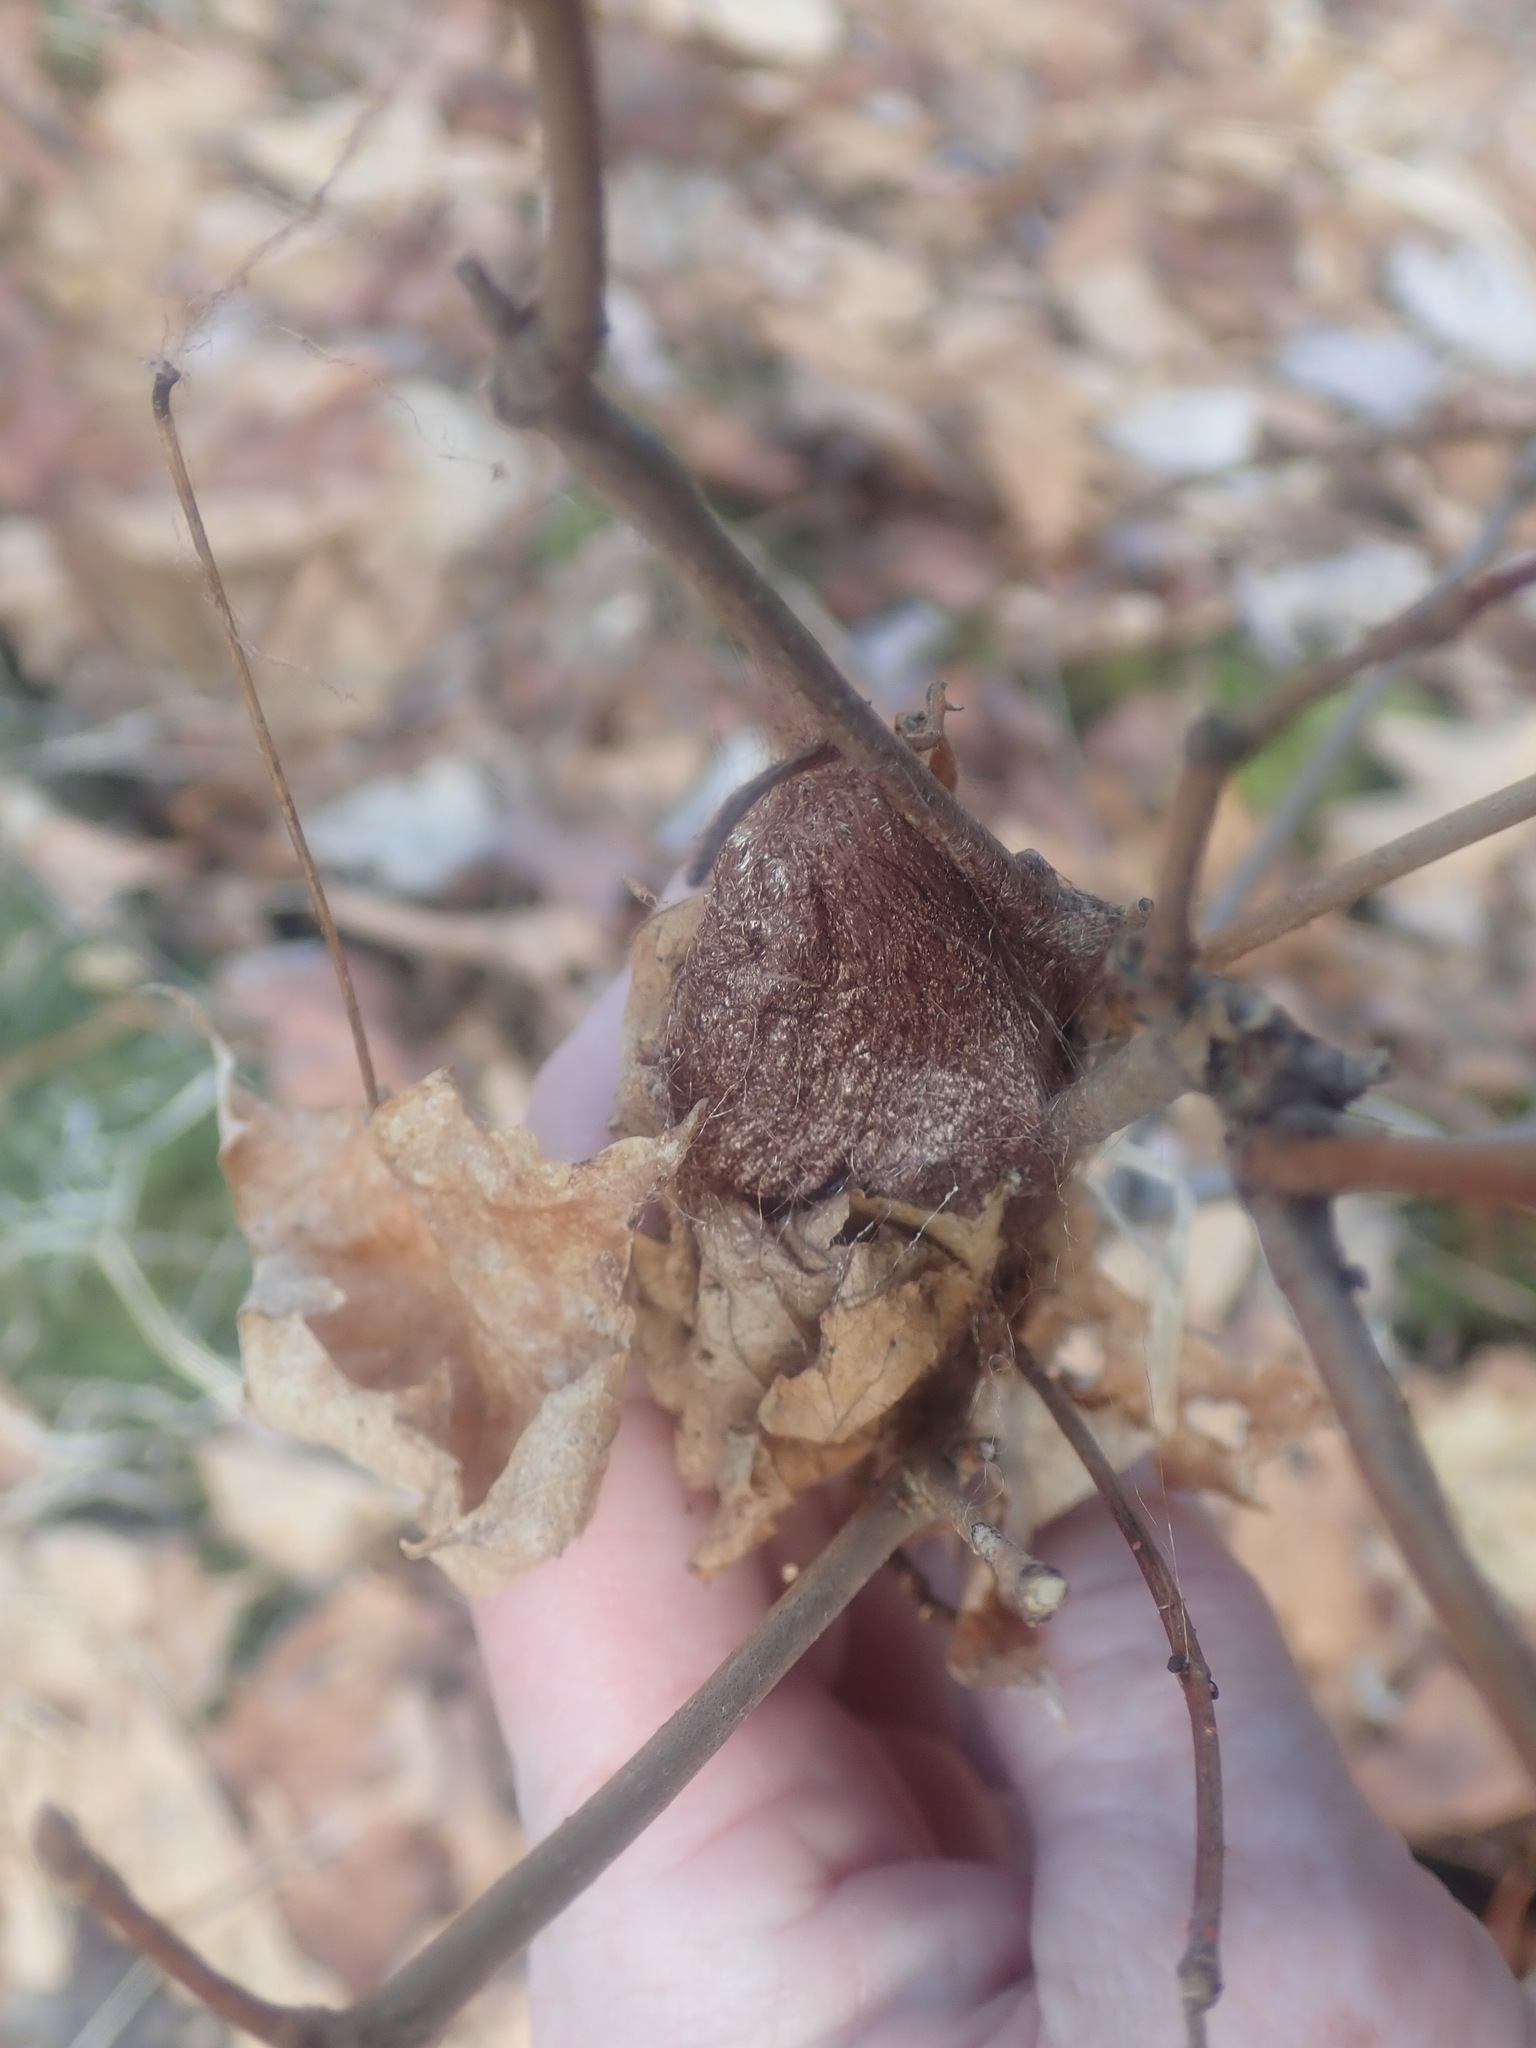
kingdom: Animalia
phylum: Arthropoda
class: Insecta
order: Lepidoptera
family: Saturniidae
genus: Hyalophora
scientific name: Hyalophora cecropia
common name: Cecropia silkmoth
